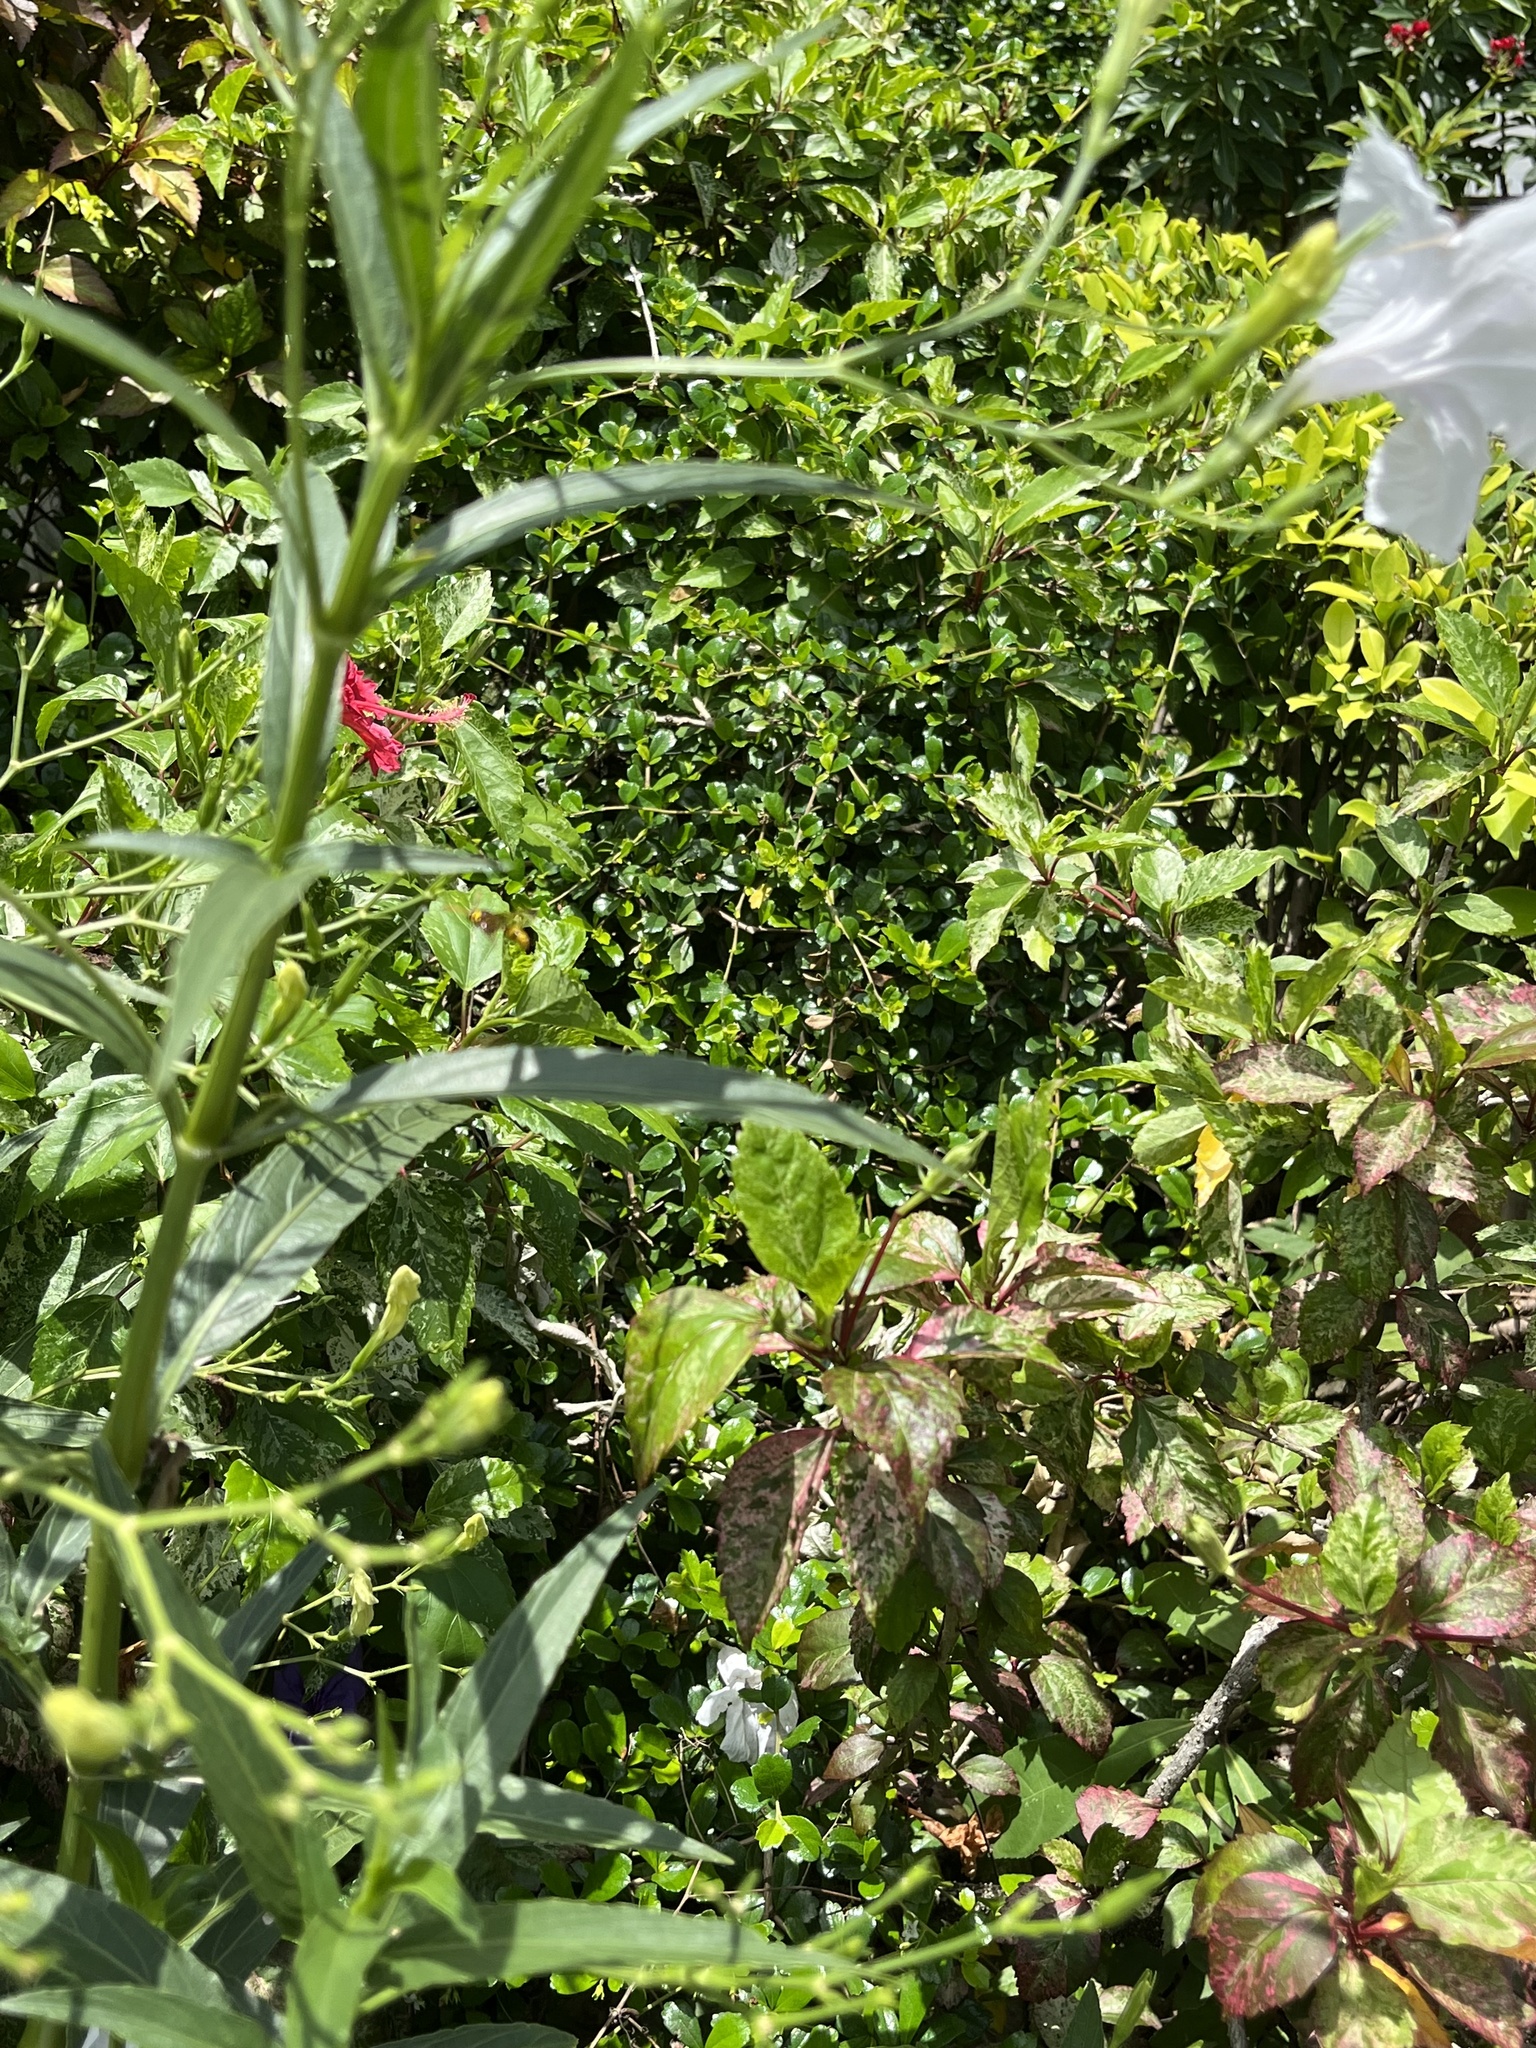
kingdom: Animalia
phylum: Arthropoda
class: Insecta
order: Hymenoptera
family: Eumenidae
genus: Delta
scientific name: Delta esuriens
